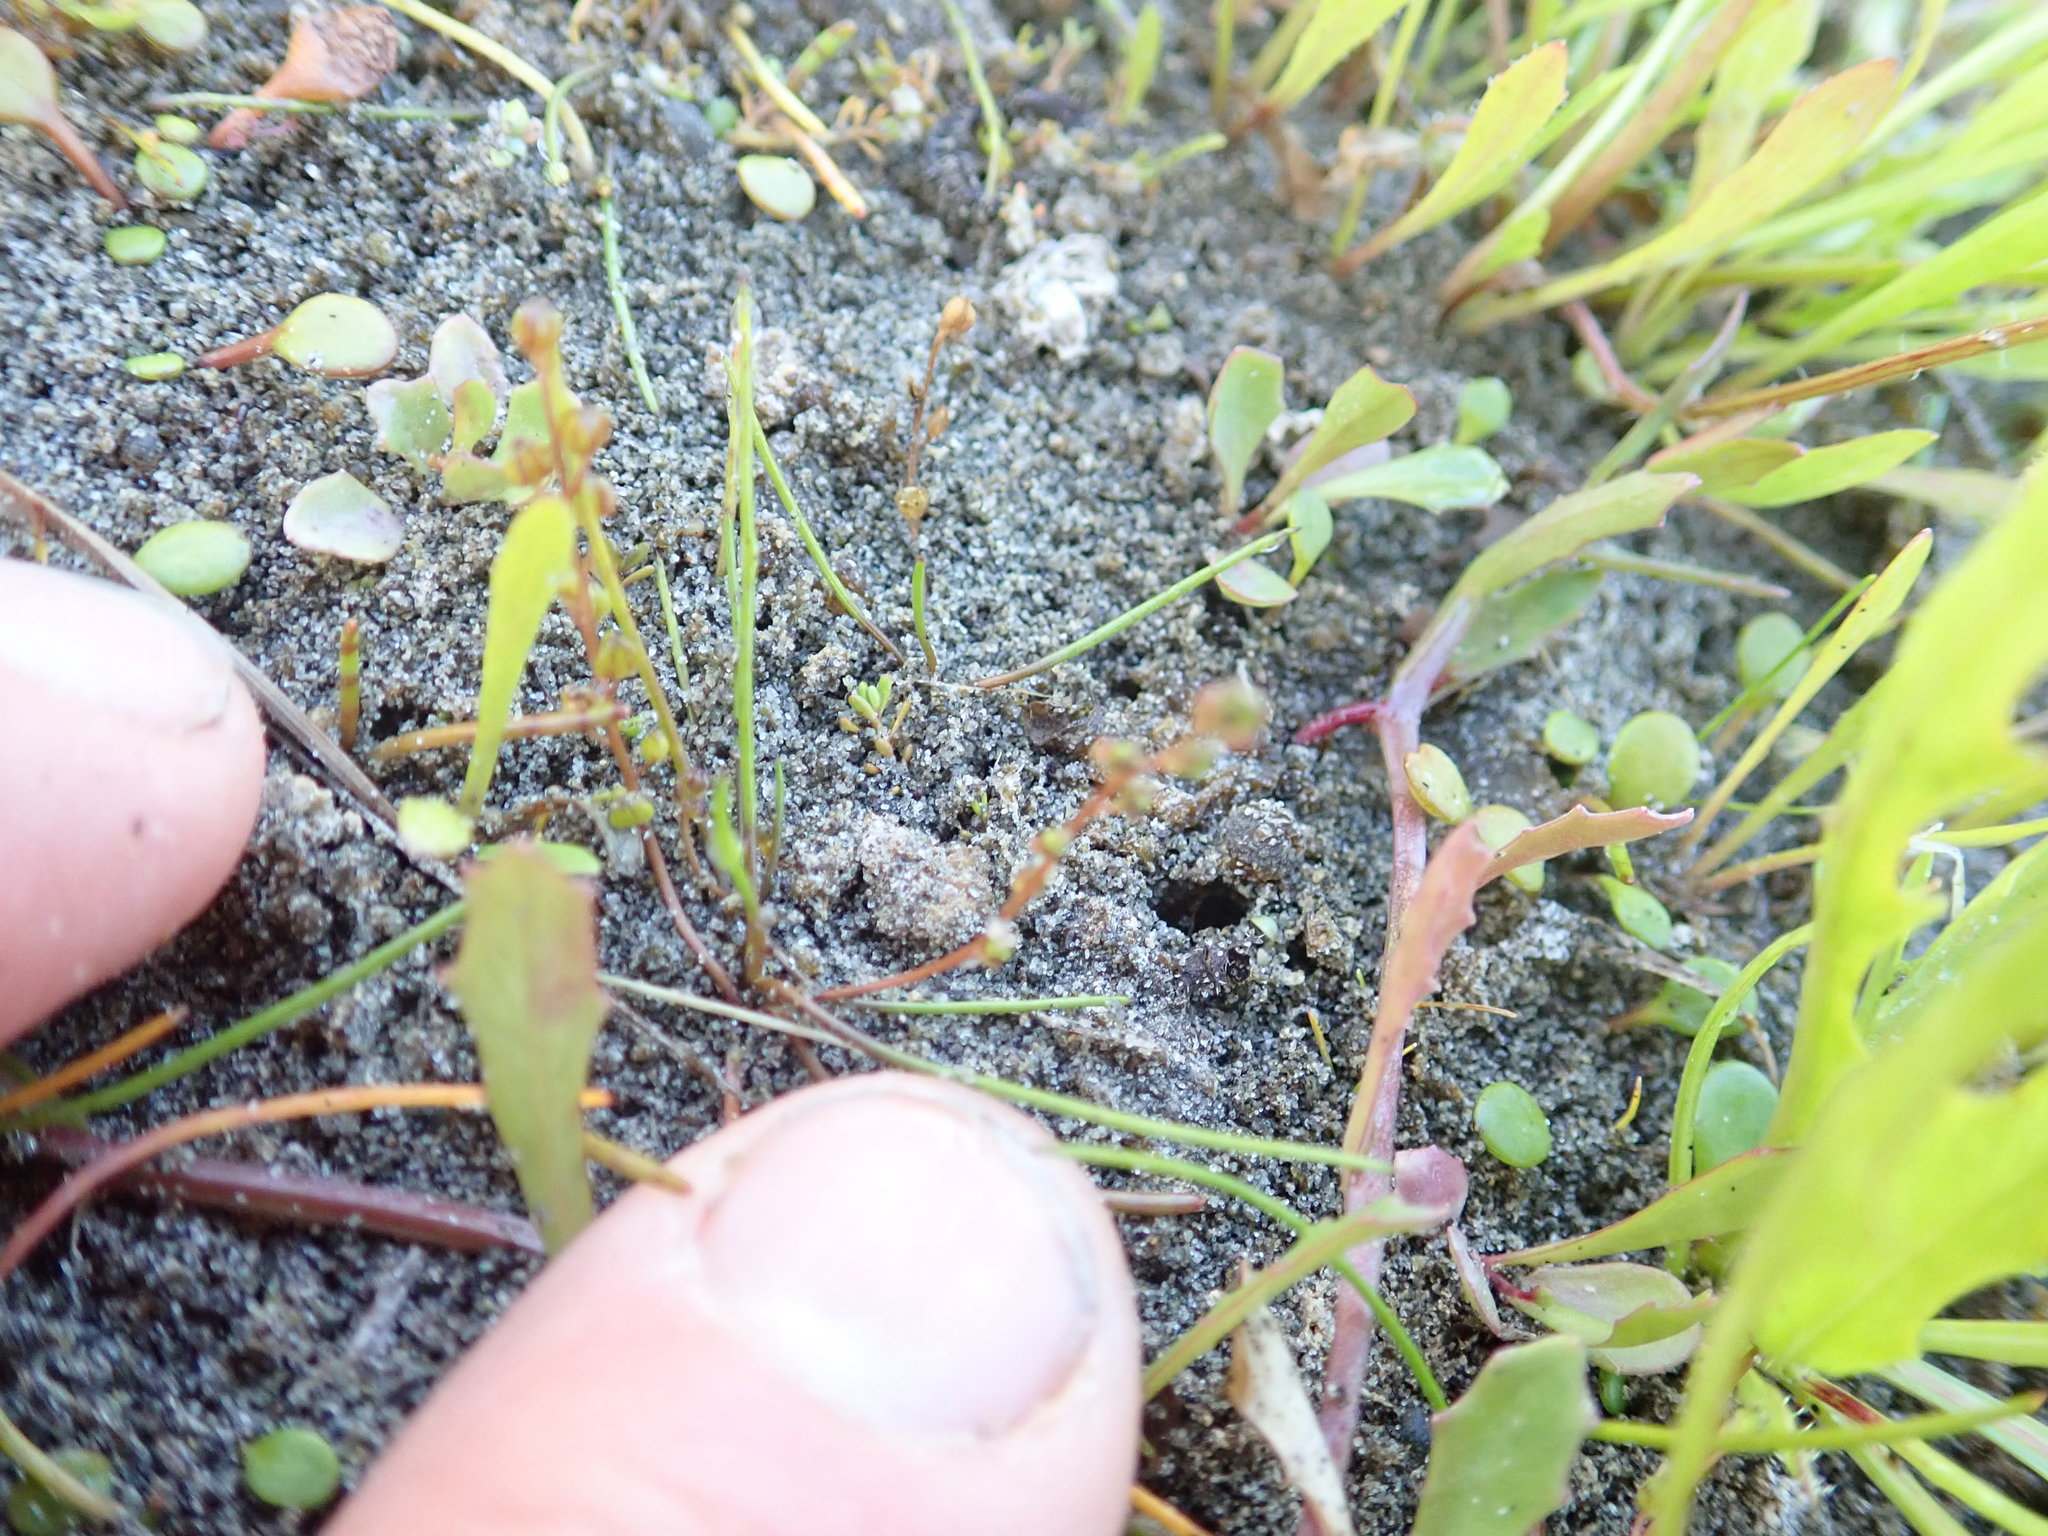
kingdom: Plantae
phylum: Tracheophyta
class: Liliopsida
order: Alismatales
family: Juncaginaceae
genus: Triglochin
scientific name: Triglochin striata
